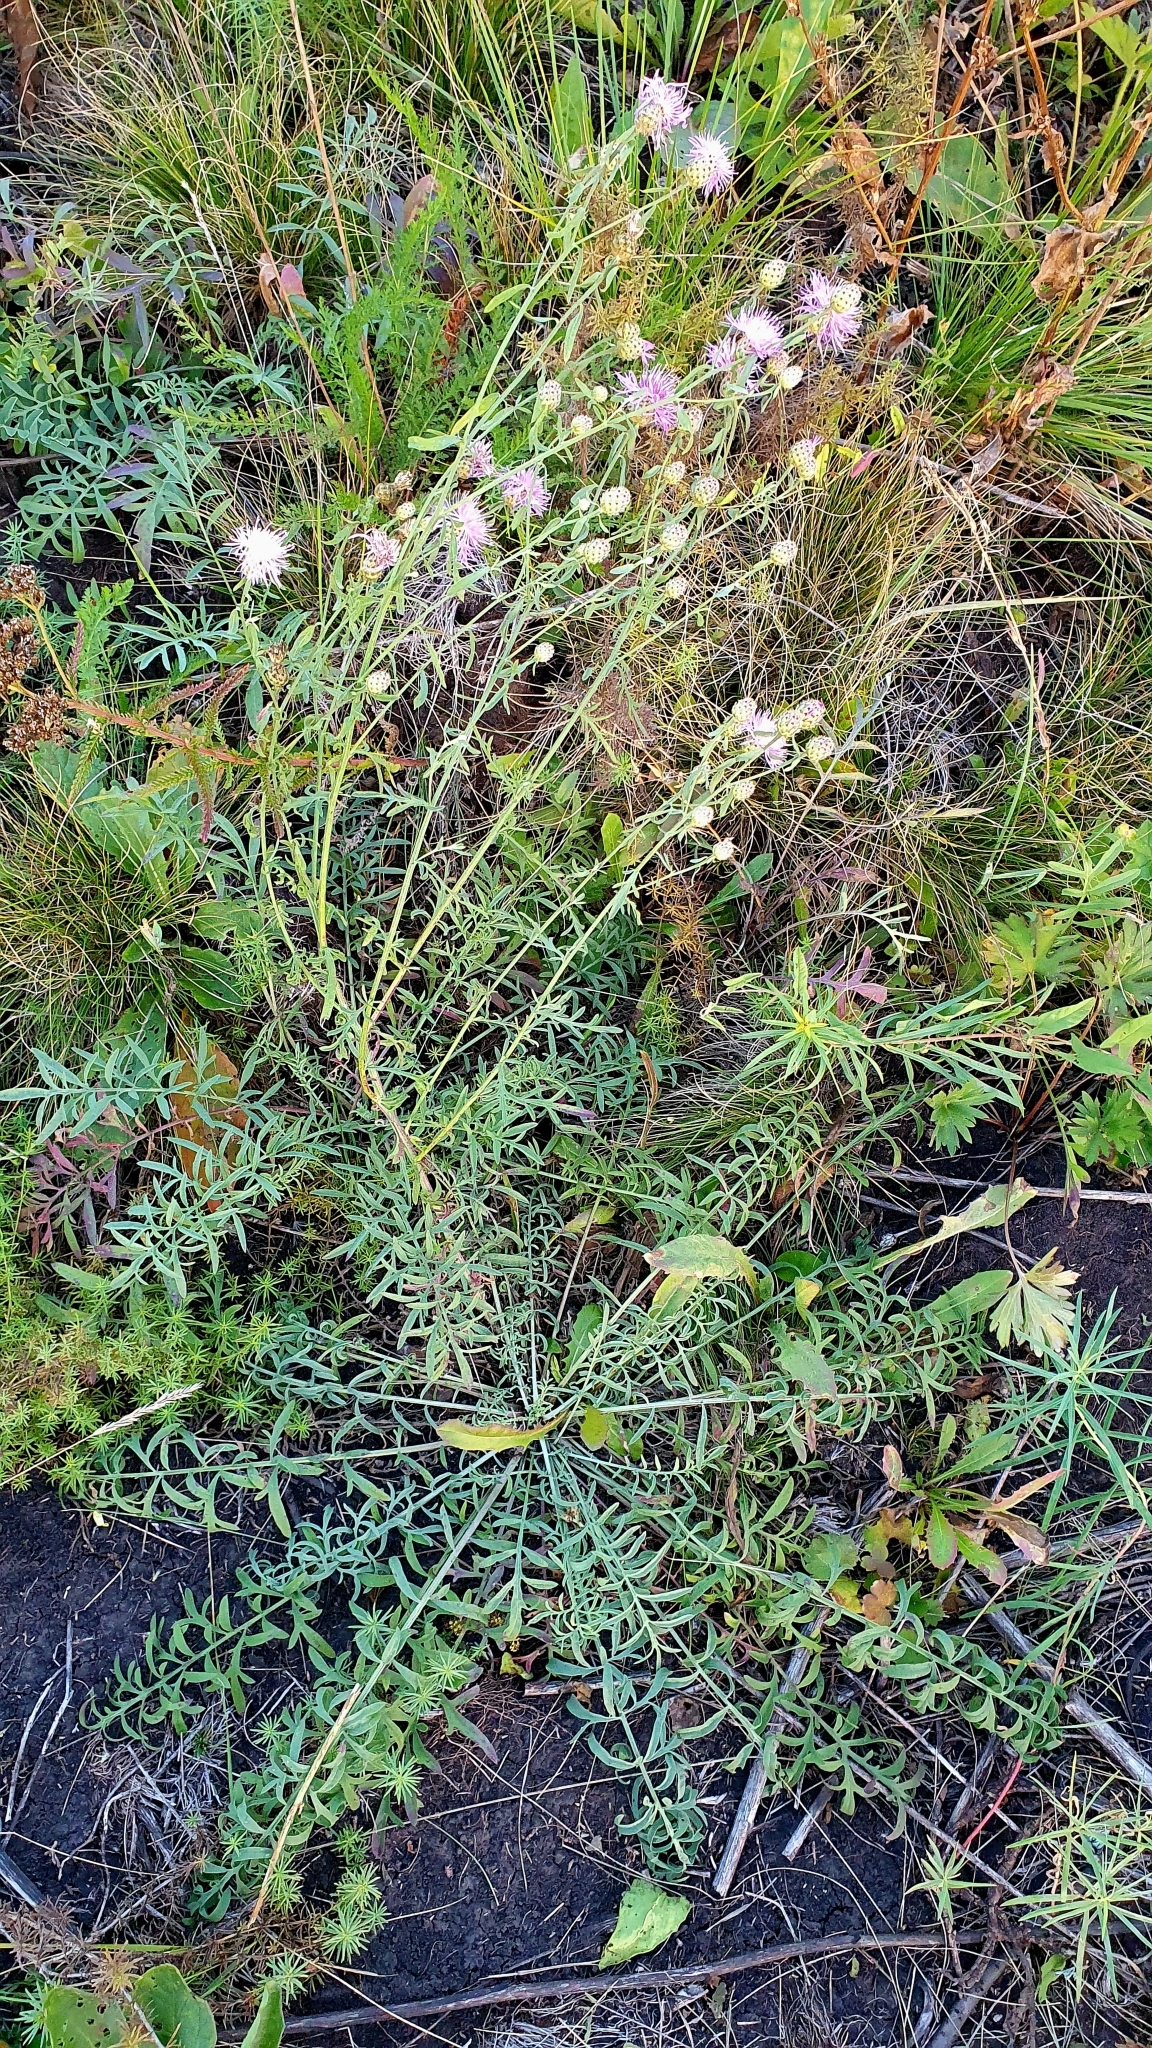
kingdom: Plantae
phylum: Tracheophyta
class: Magnoliopsida
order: Asterales
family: Asteraceae
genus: Centaurea
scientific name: Centaurea stoebe
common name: Spotted knapweed
